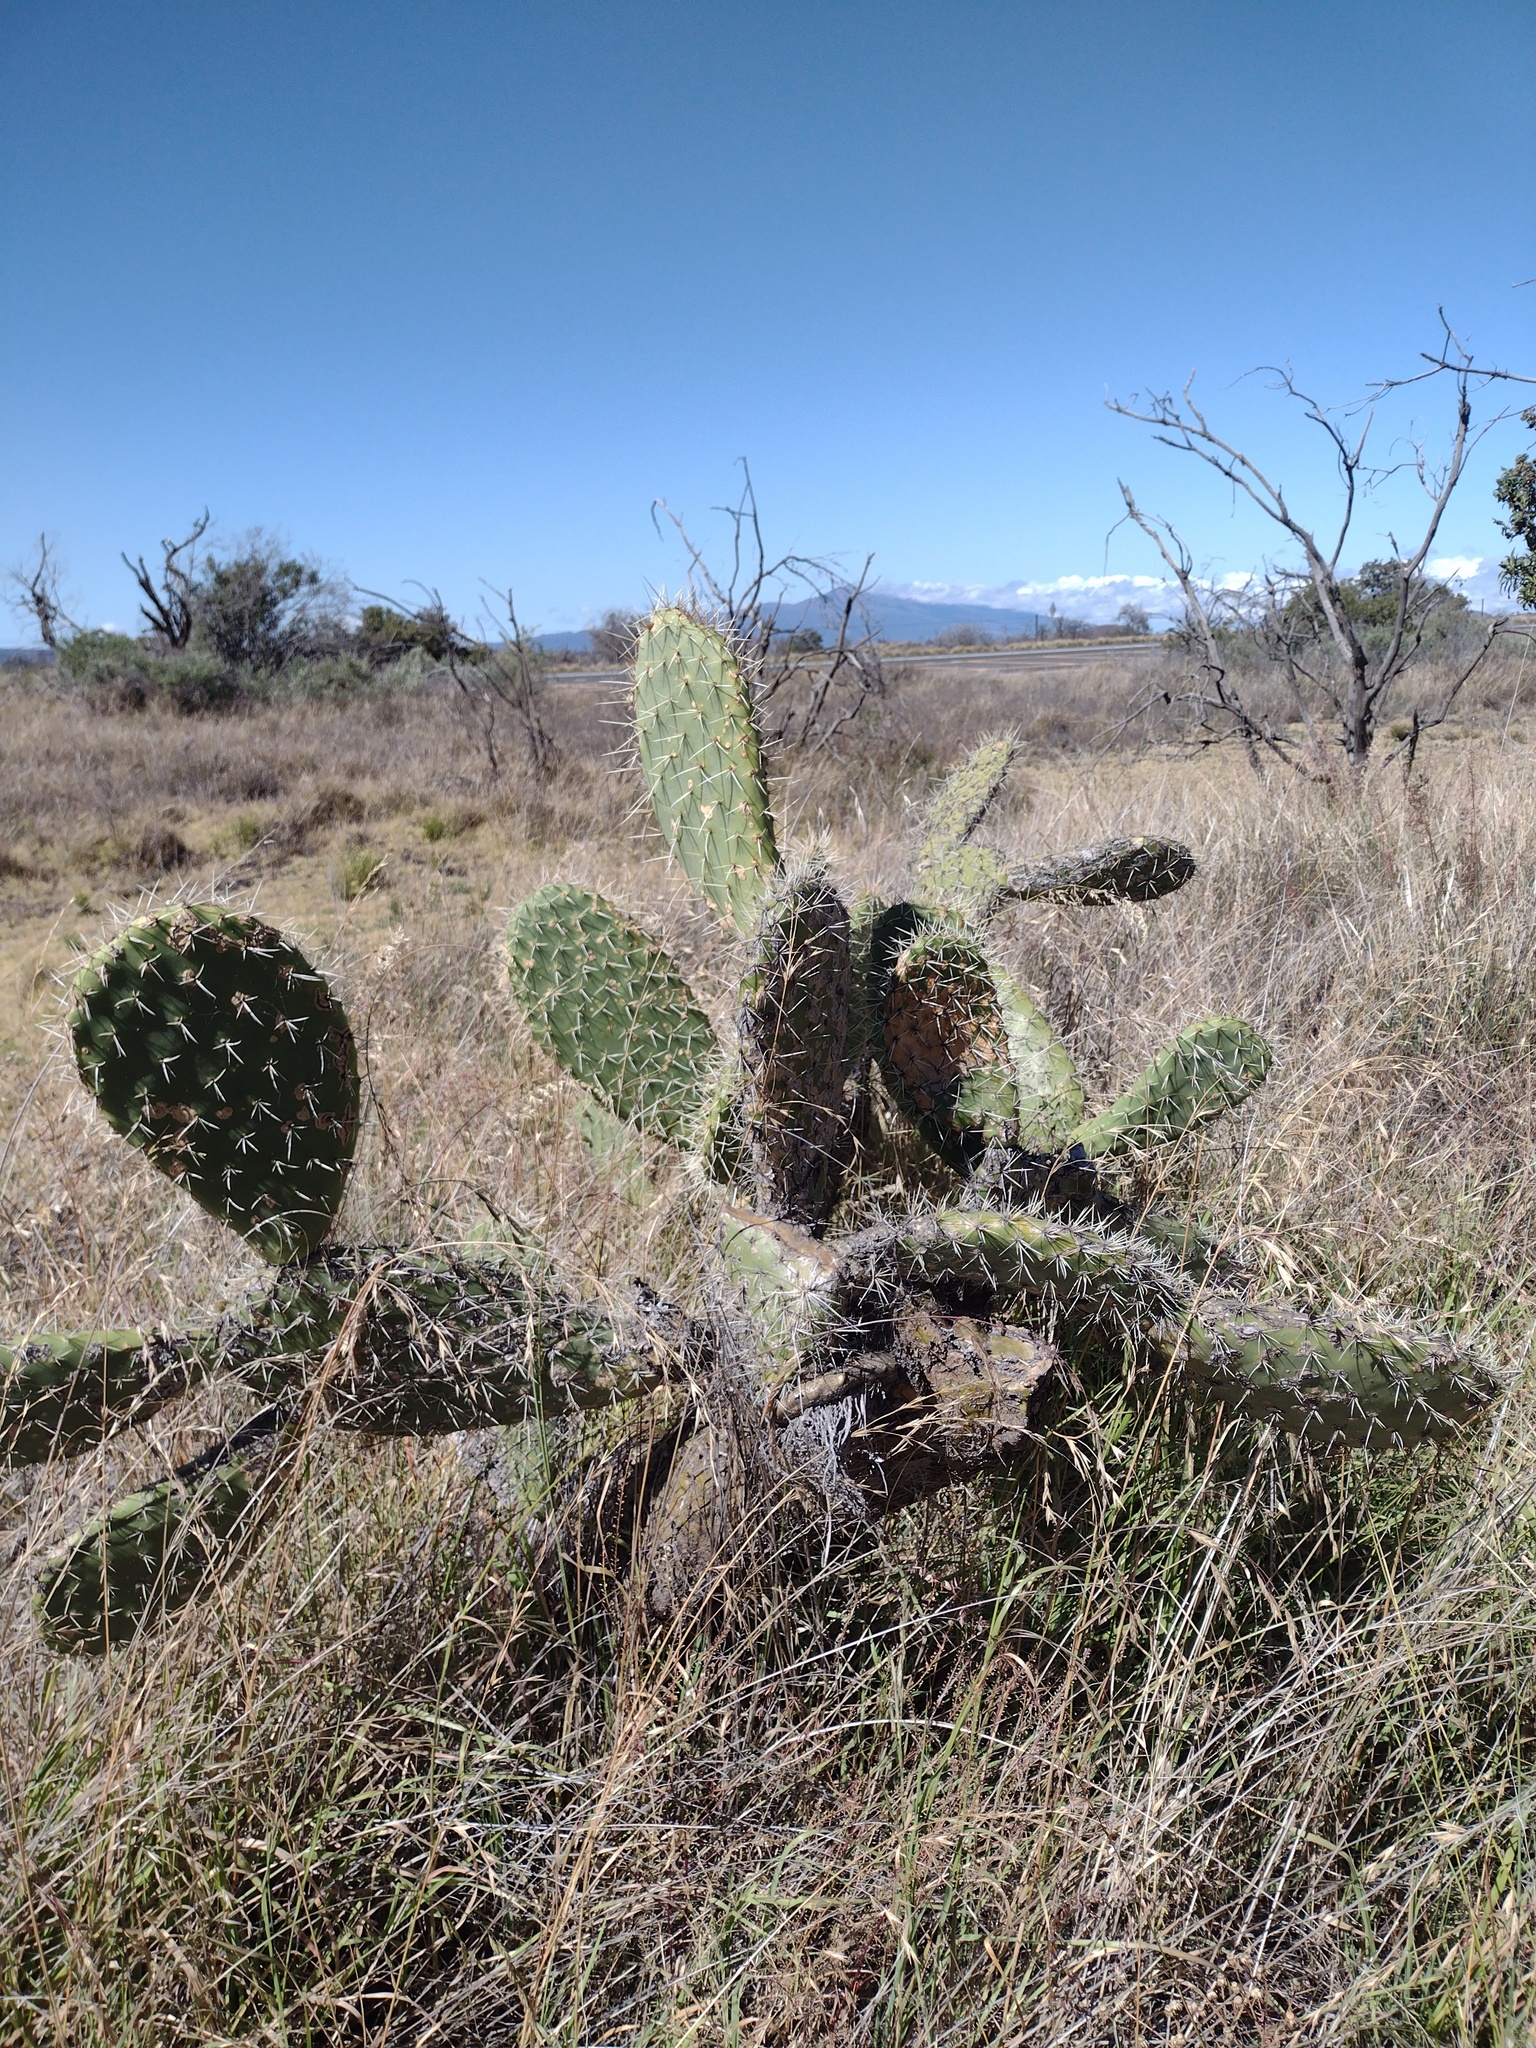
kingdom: Plantae
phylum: Tracheophyta
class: Magnoliopsida
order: Caryophyllales
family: Cactaceae
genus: Opuntia
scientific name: Opuntia ficus-indica
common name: Barbary fig
